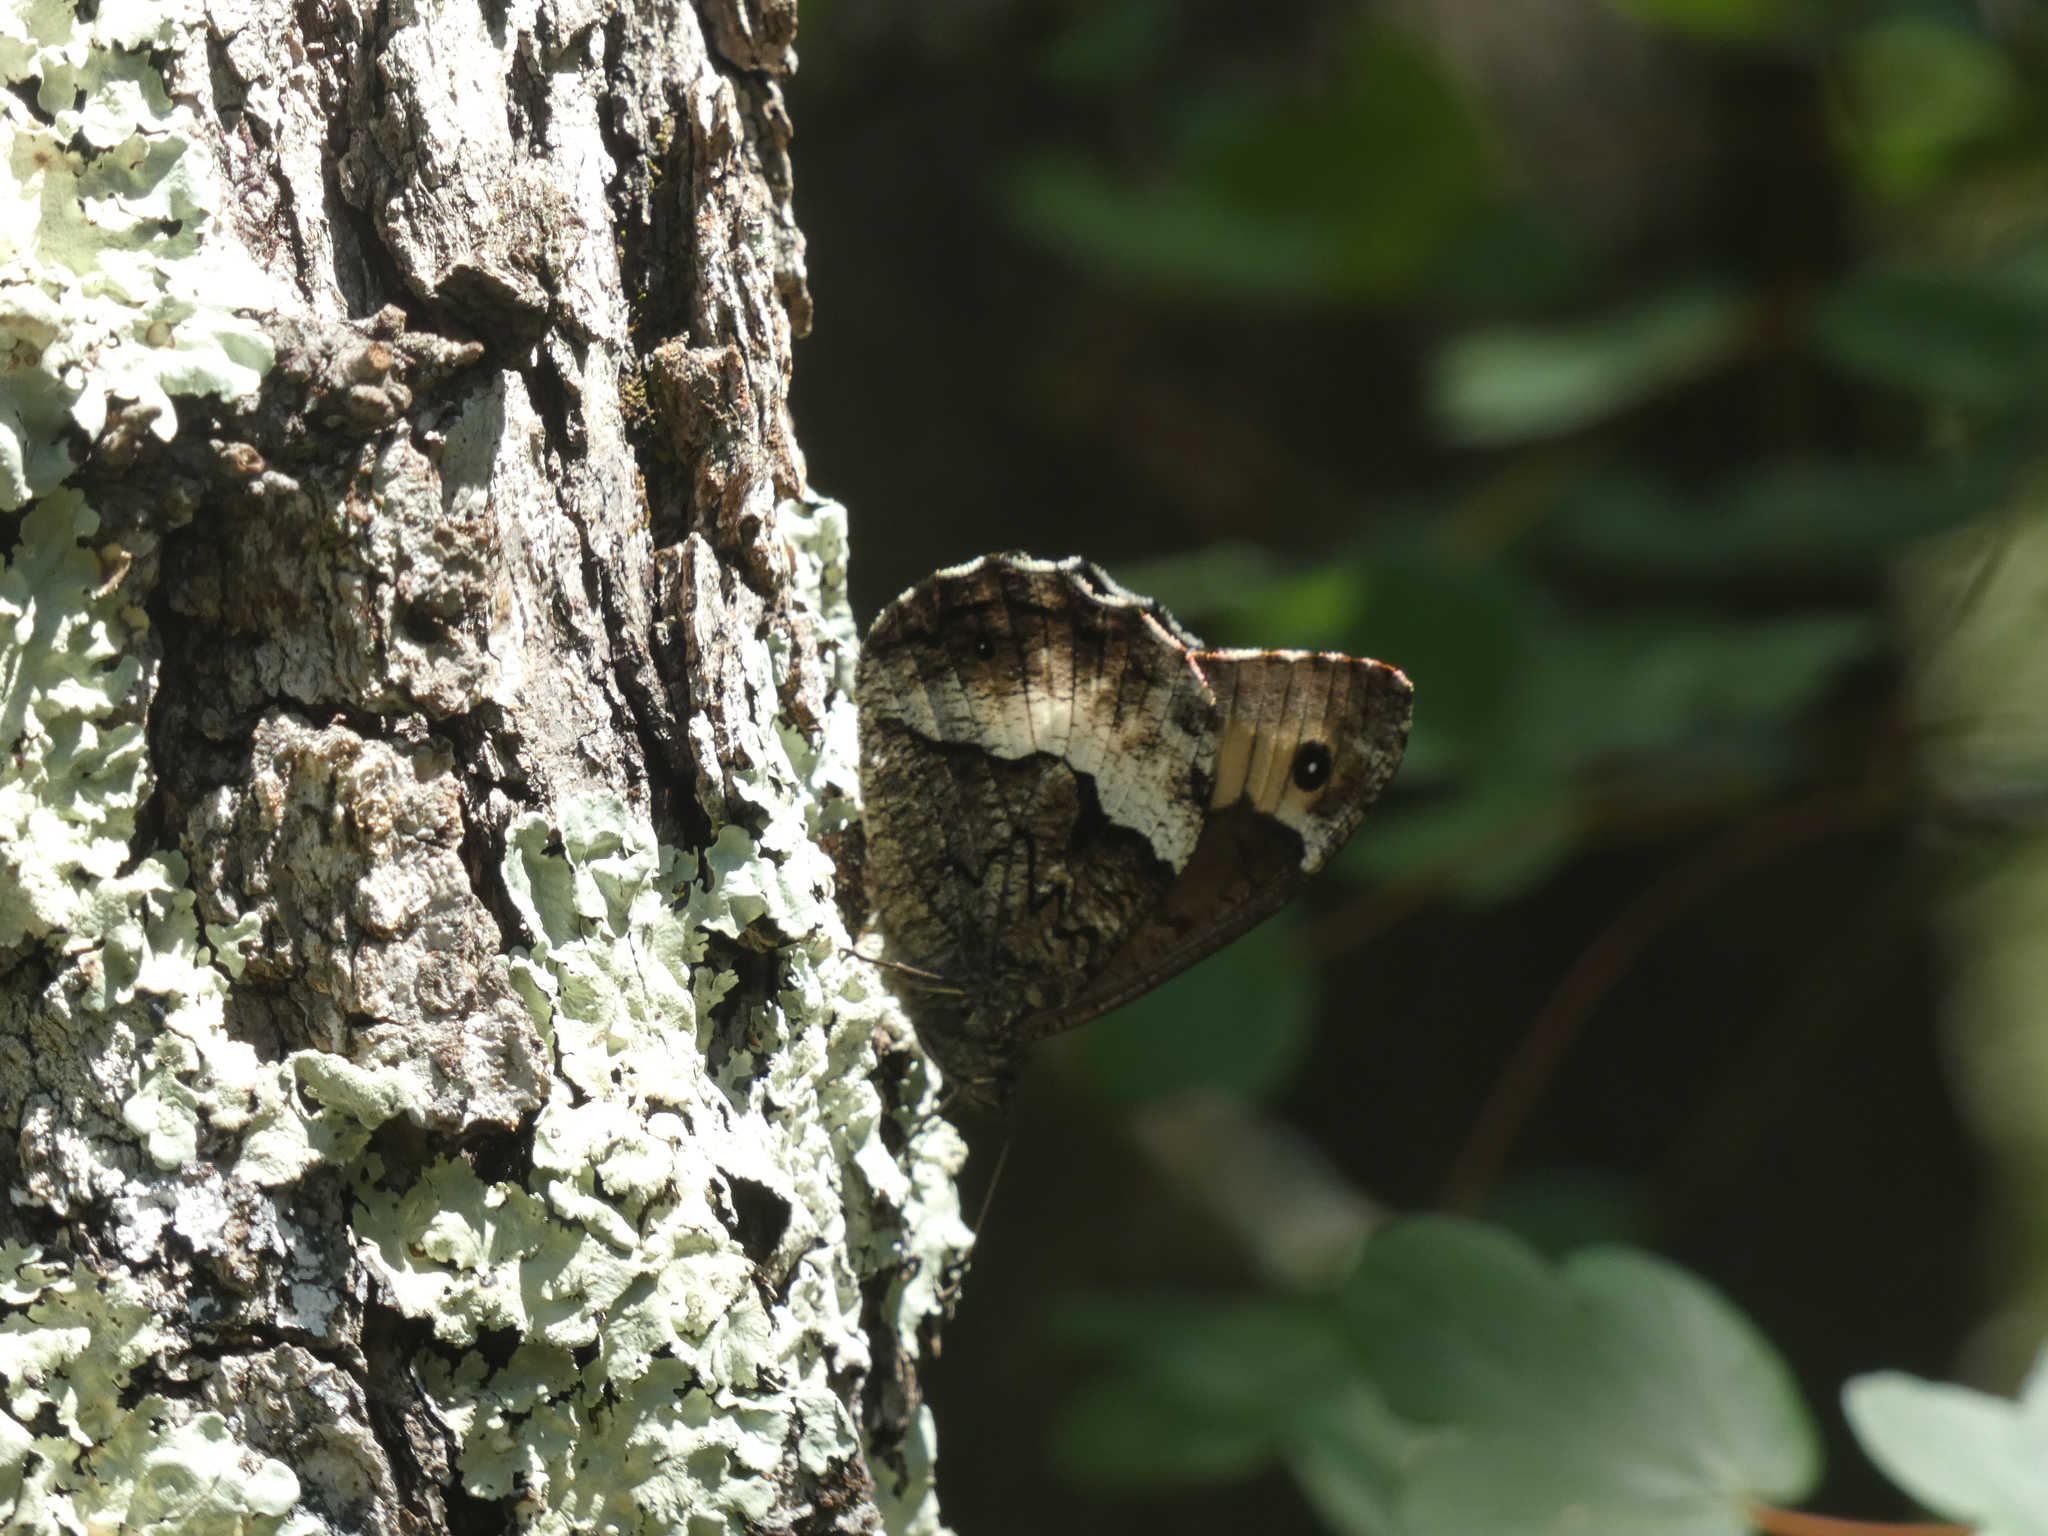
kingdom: Animalia
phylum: Arthropoda
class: Insecta
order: Lepidoptera
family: Nymphalidae
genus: Hipparchia
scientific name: Hipparchia fagi
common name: Woodland grayling
